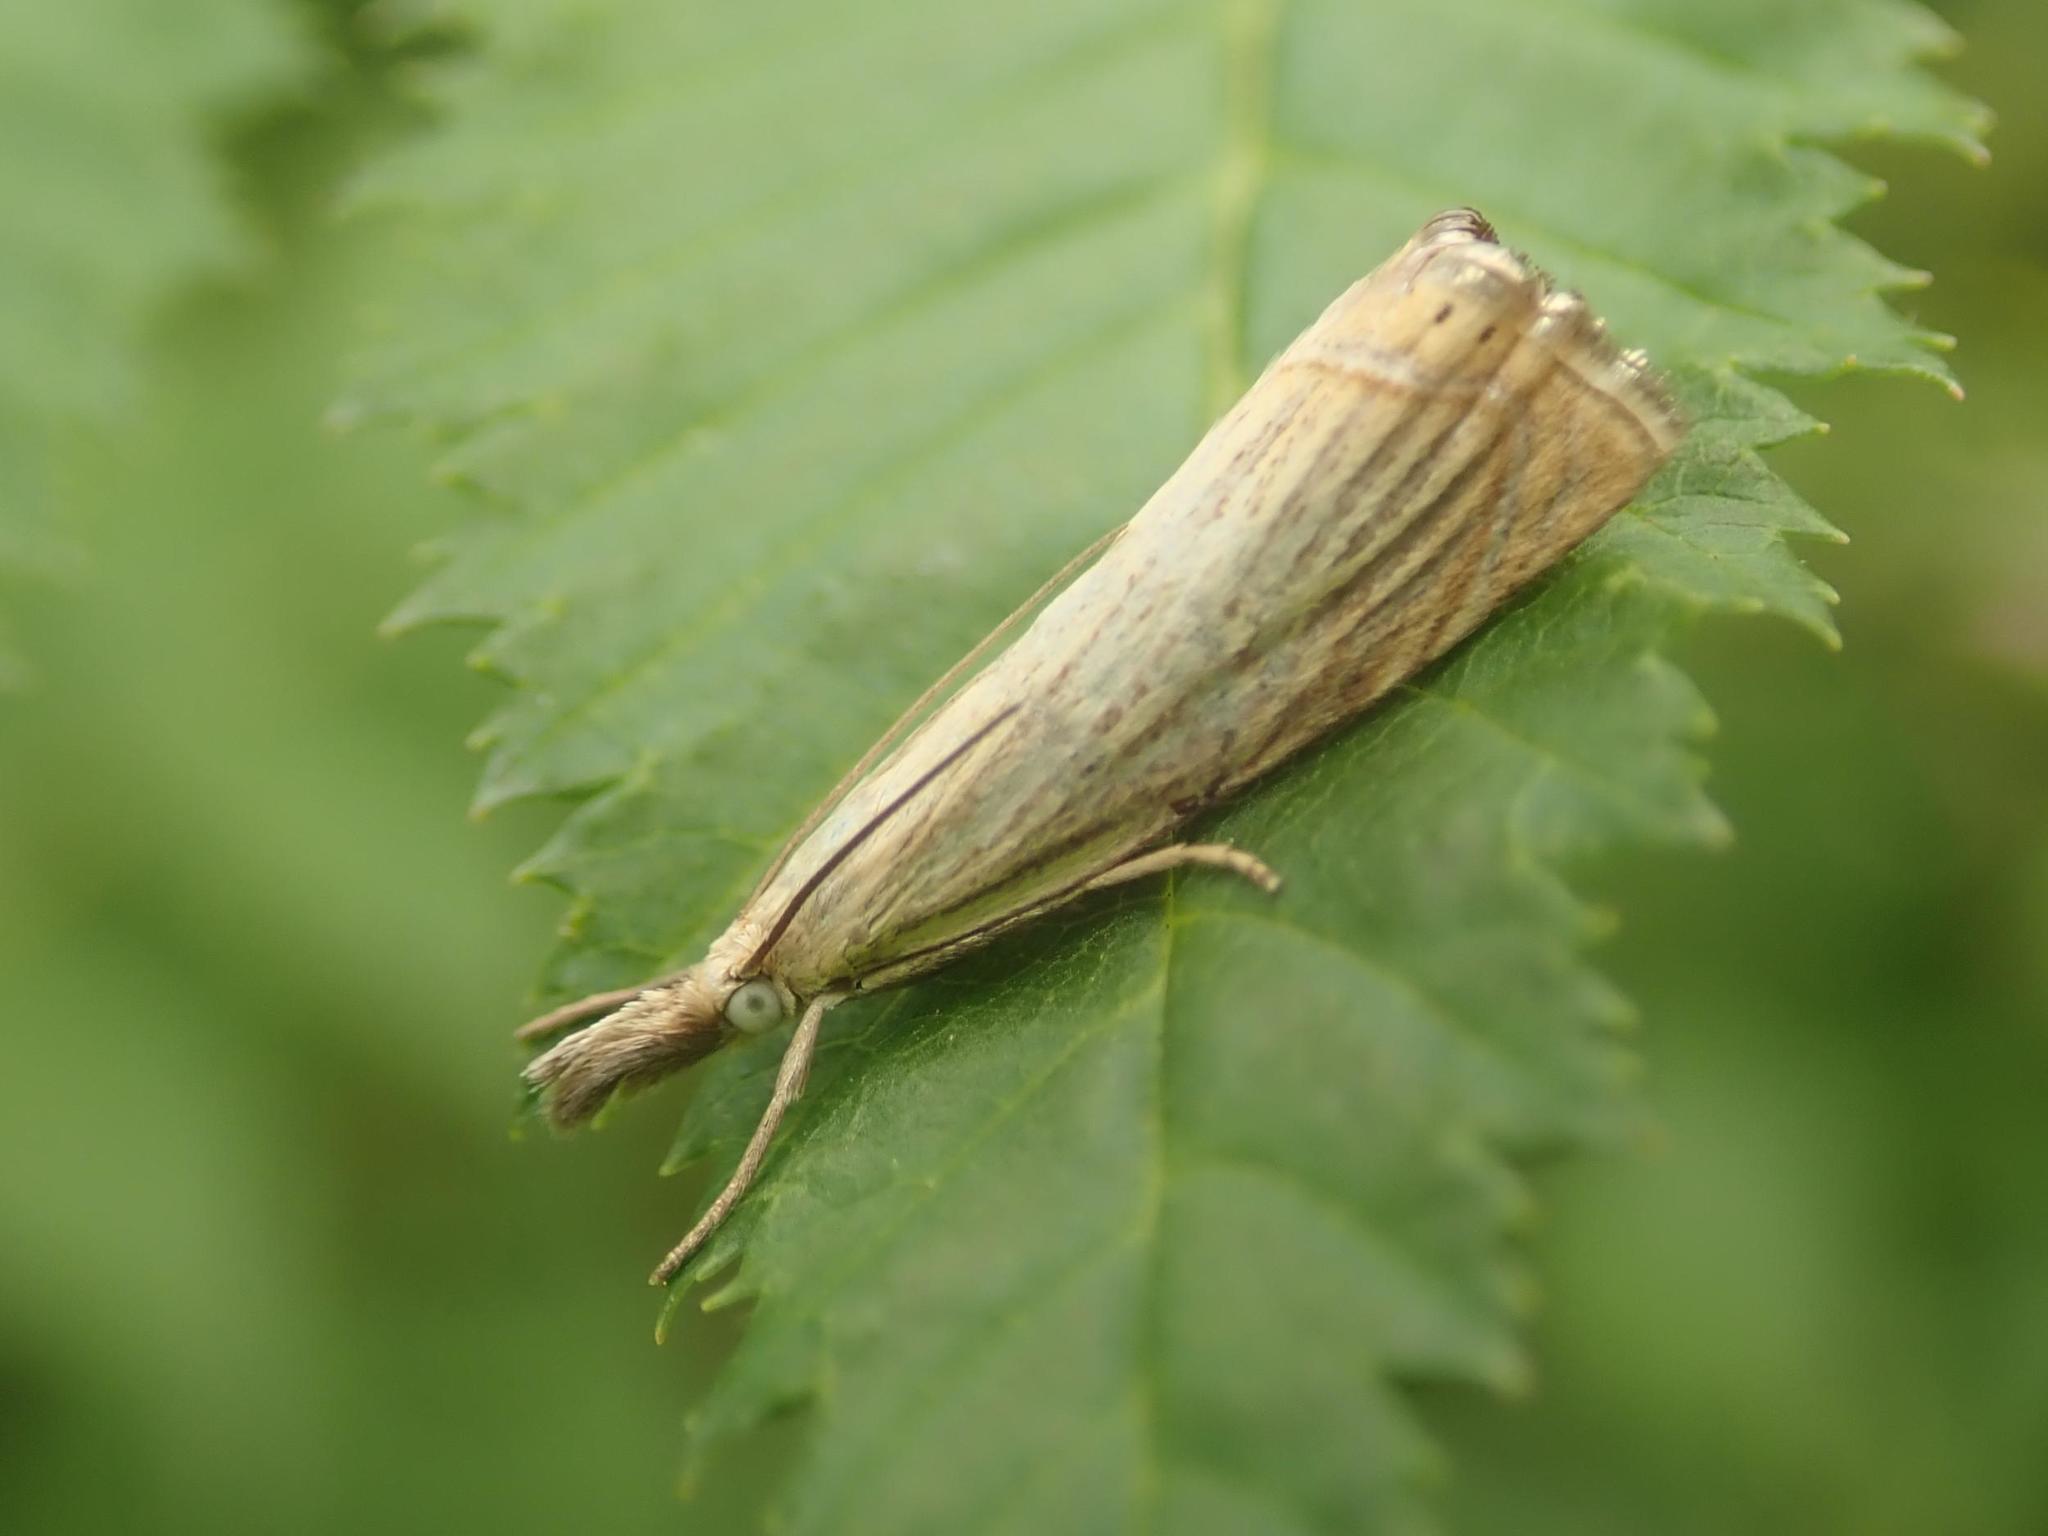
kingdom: Animalia
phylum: Arthropoda
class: Insecta
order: Lepidoptera
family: Crambidae
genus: Chrysoteuchia
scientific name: Chrysoteuchia culmella
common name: Garden grass-veneer
